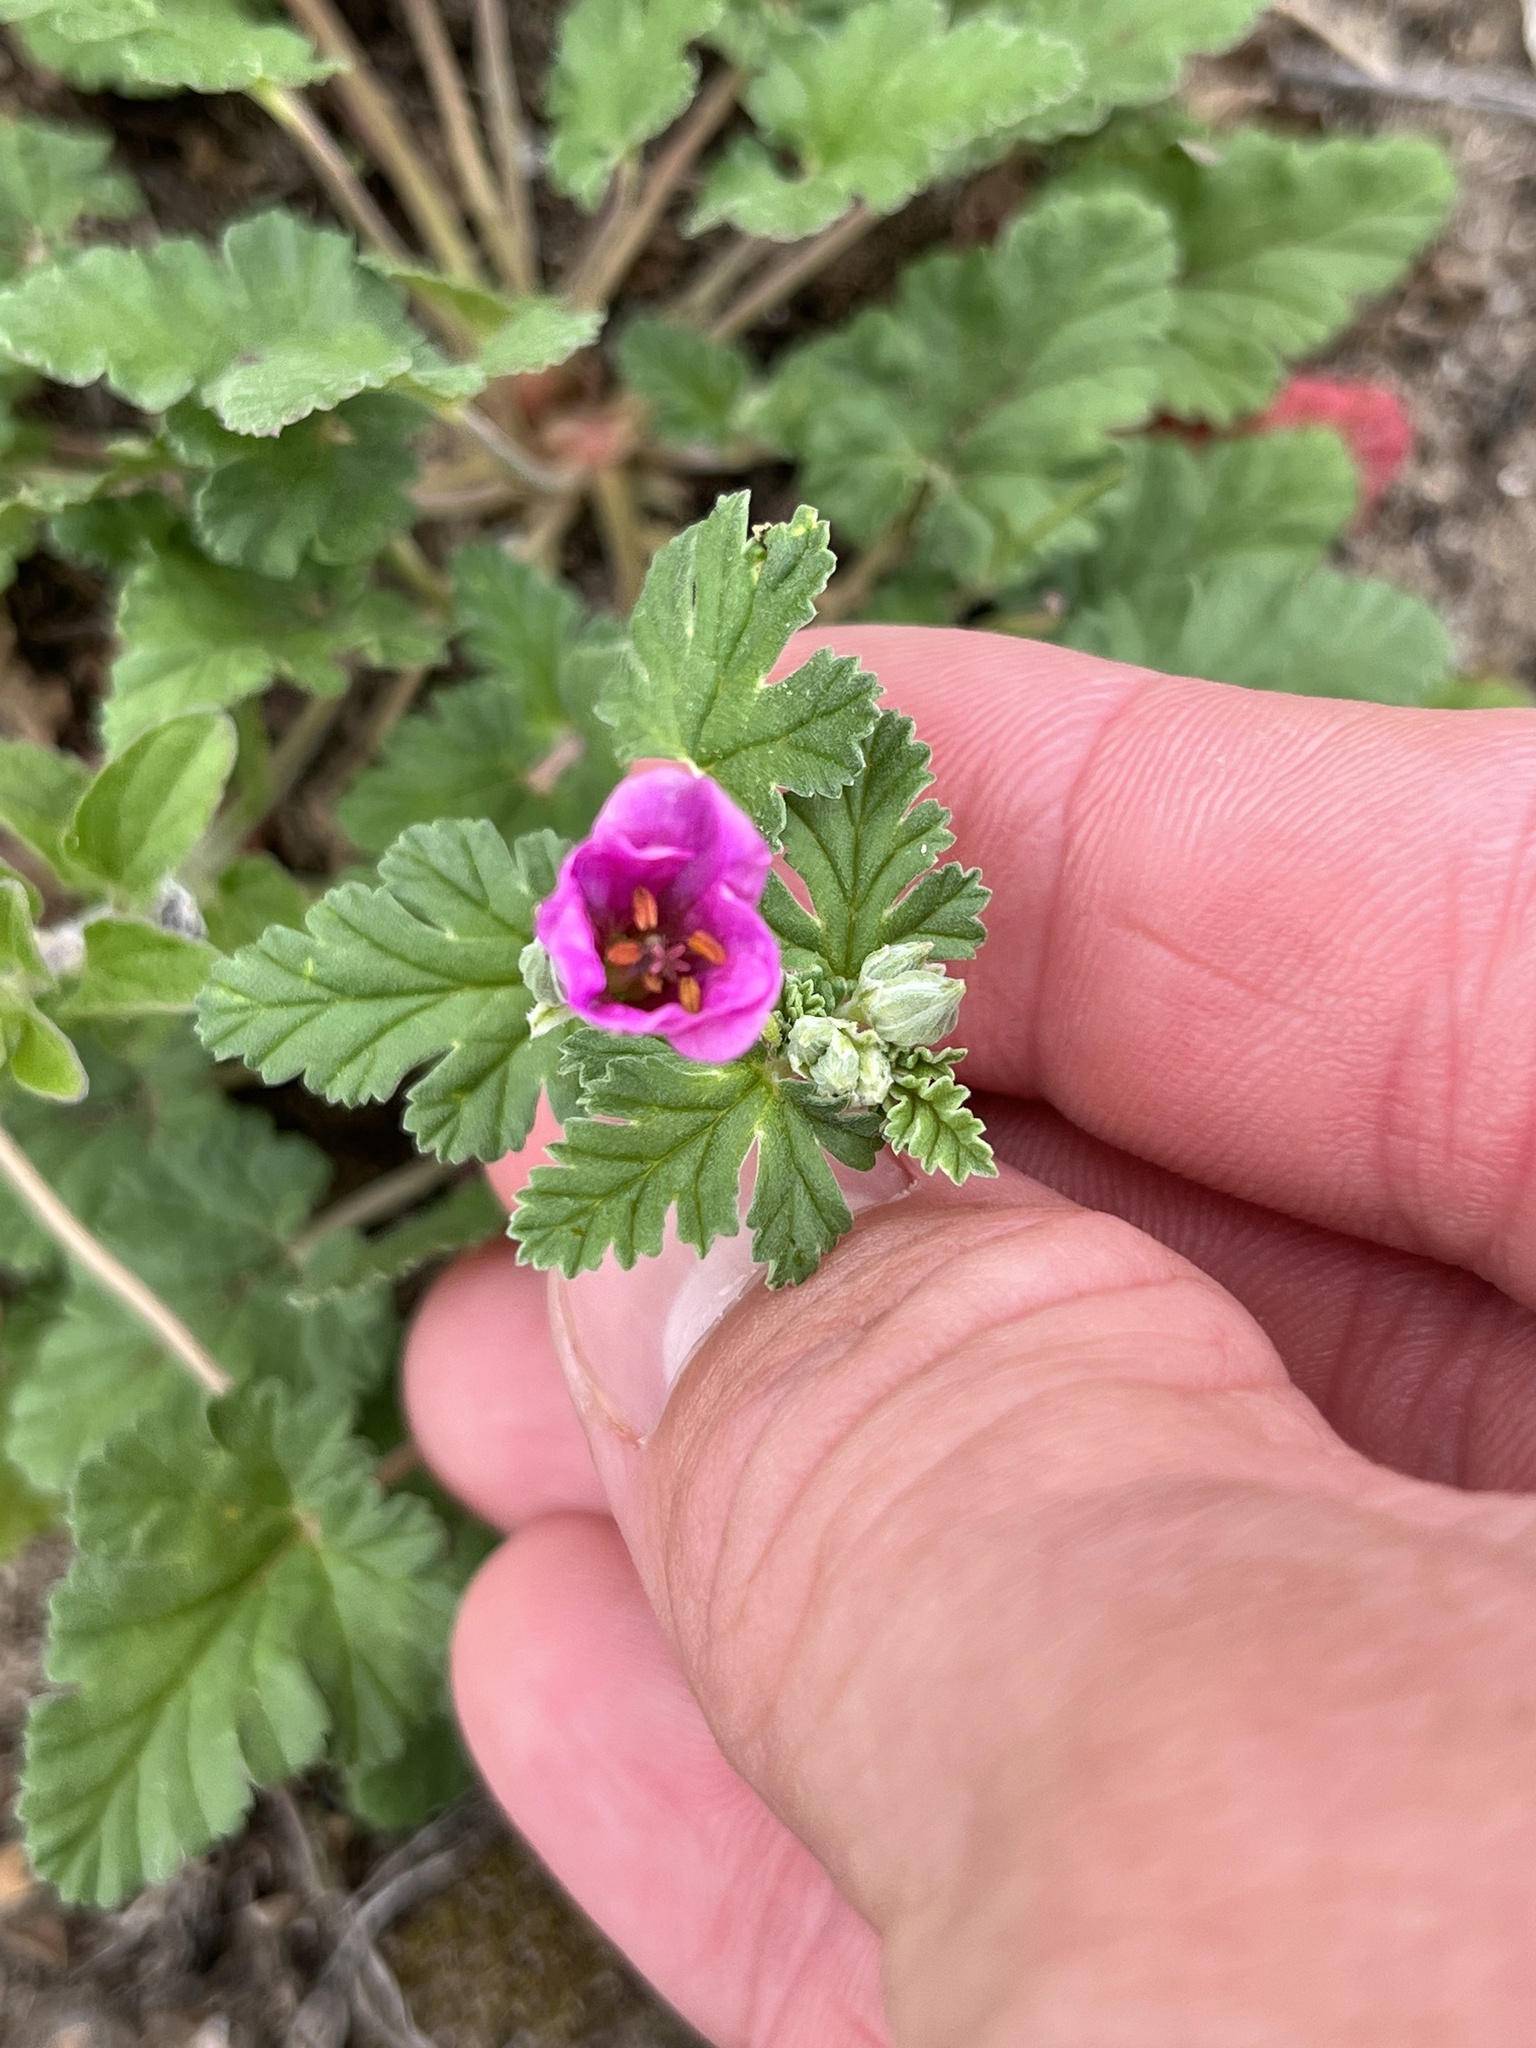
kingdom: Plantae
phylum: Tracheophyta
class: Magnoliopsida
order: Geraniales
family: Geraniaceae
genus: Erodium
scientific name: Erodium texanum
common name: Texas stork's-bill
